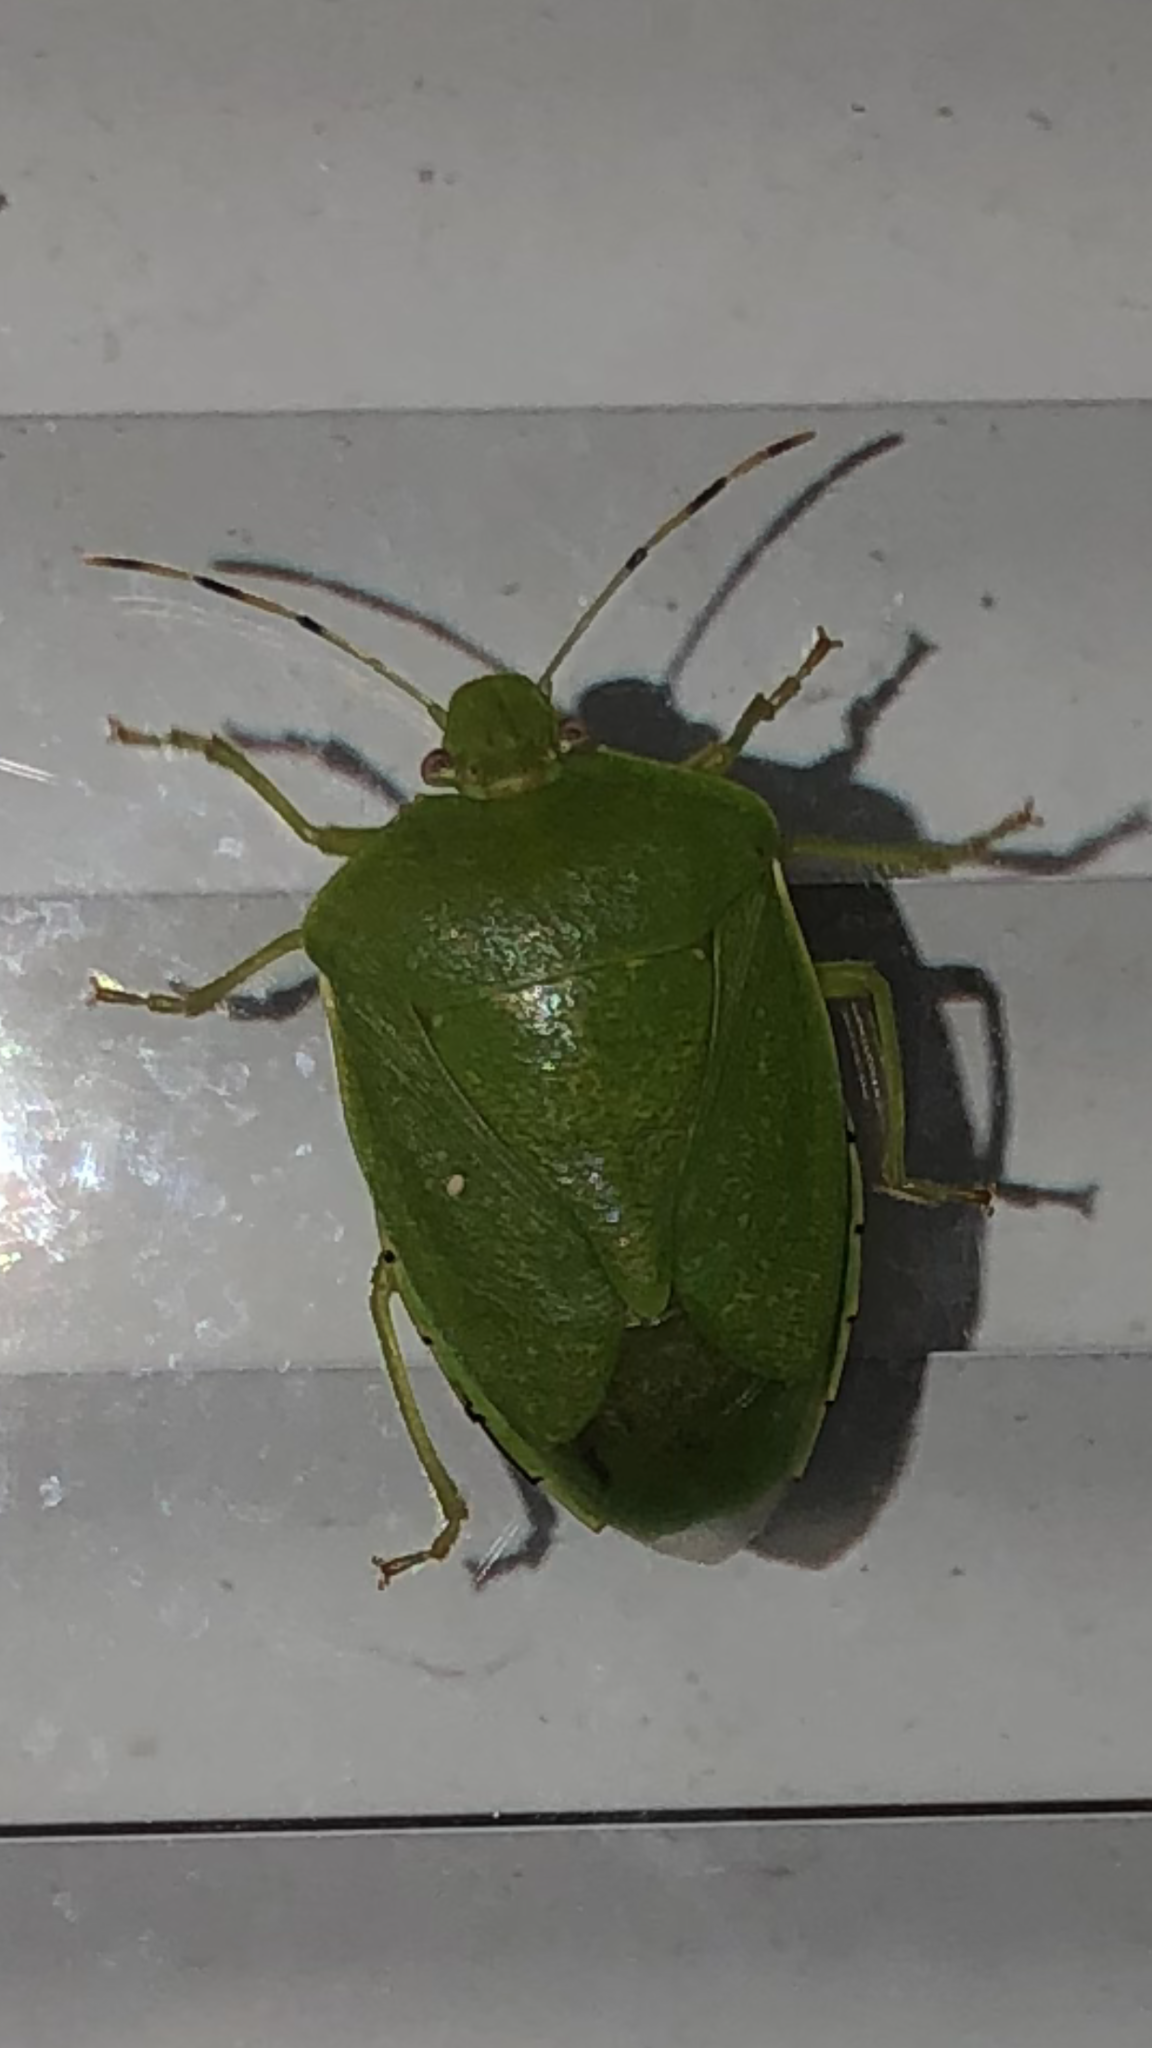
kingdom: Animalia
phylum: Arthropoda
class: Insecta
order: Hemiptera
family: Pentatomidae
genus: Chinavia
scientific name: Chinavia hilaris
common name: Green stink bug
